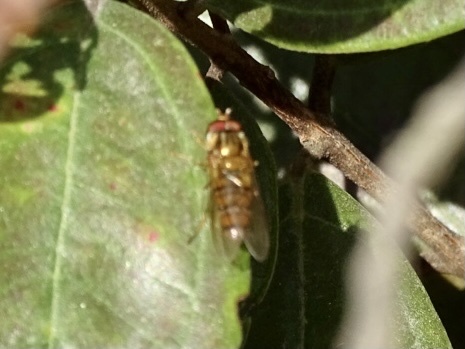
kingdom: Animalia
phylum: Arthropoda
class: Insecta
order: Diptera
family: Syrphidae
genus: Episyrphus
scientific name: Episyrphus balteatus
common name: Marmalade hoverfly
